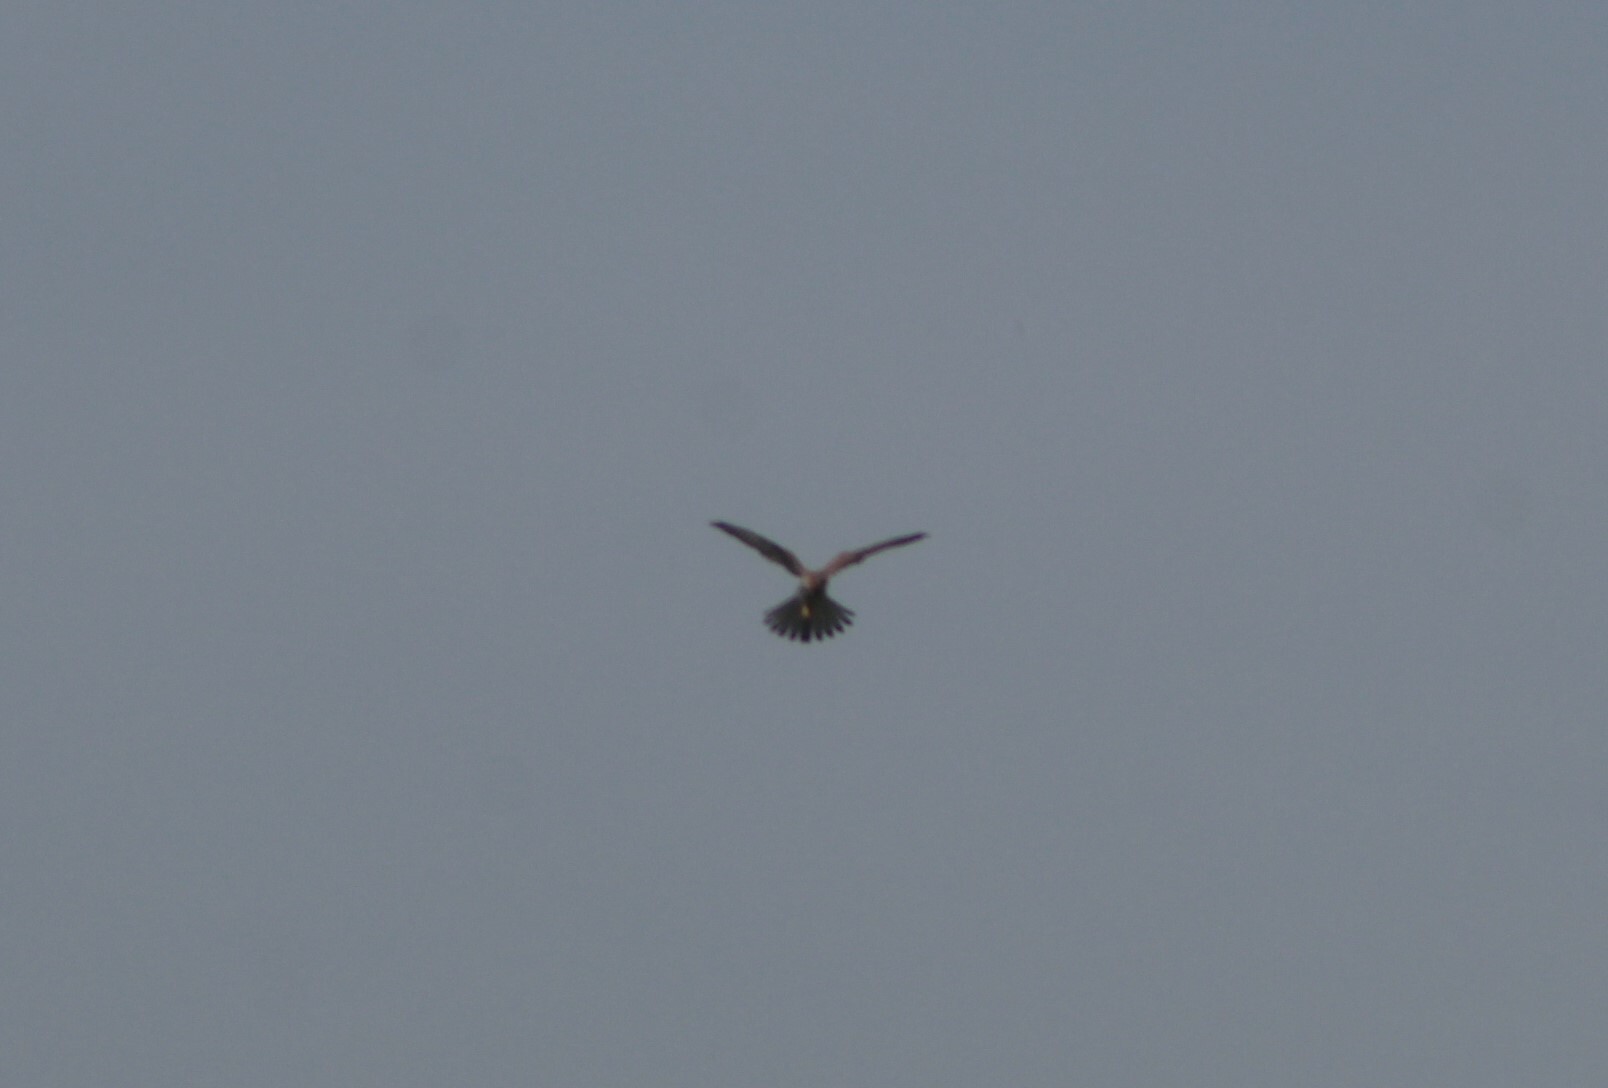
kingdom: Animalia
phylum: Chordata
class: Aves
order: Falconiformes
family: Falconidae
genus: Falco
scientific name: Falco tinnunculus
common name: Common kestrel
